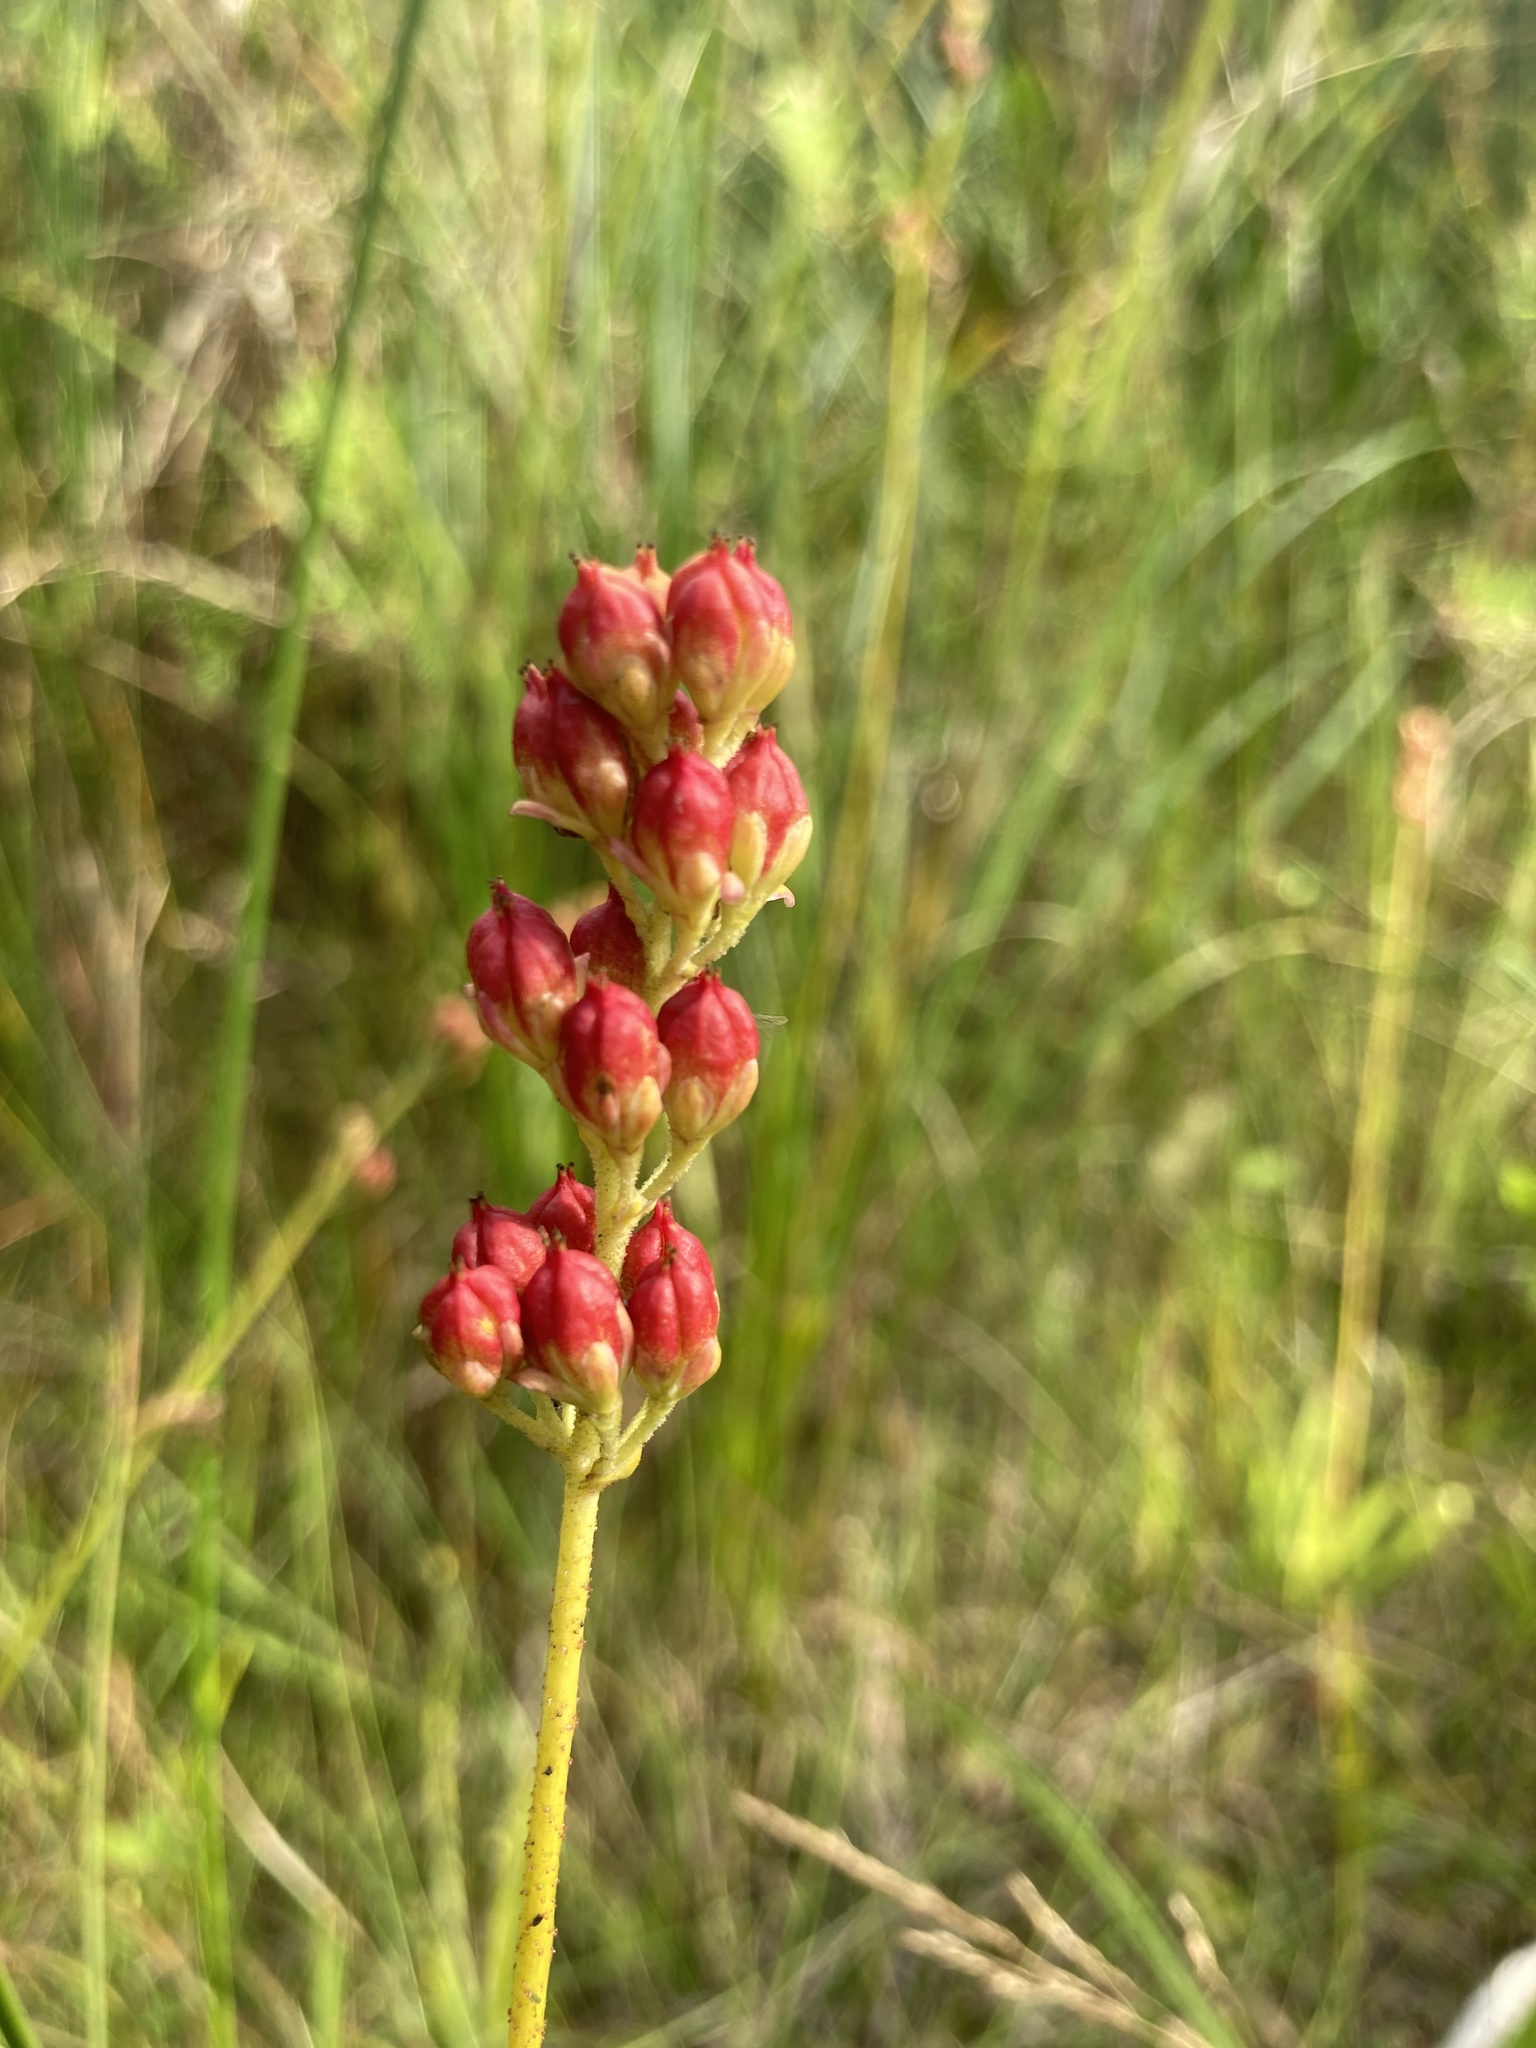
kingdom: Plantae
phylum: Tracheophyta
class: Liliopsida
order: Alismatales
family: Tofieldiaceae
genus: Triantha
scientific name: Triantha glutinosa
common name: Glutinous tofieldia
